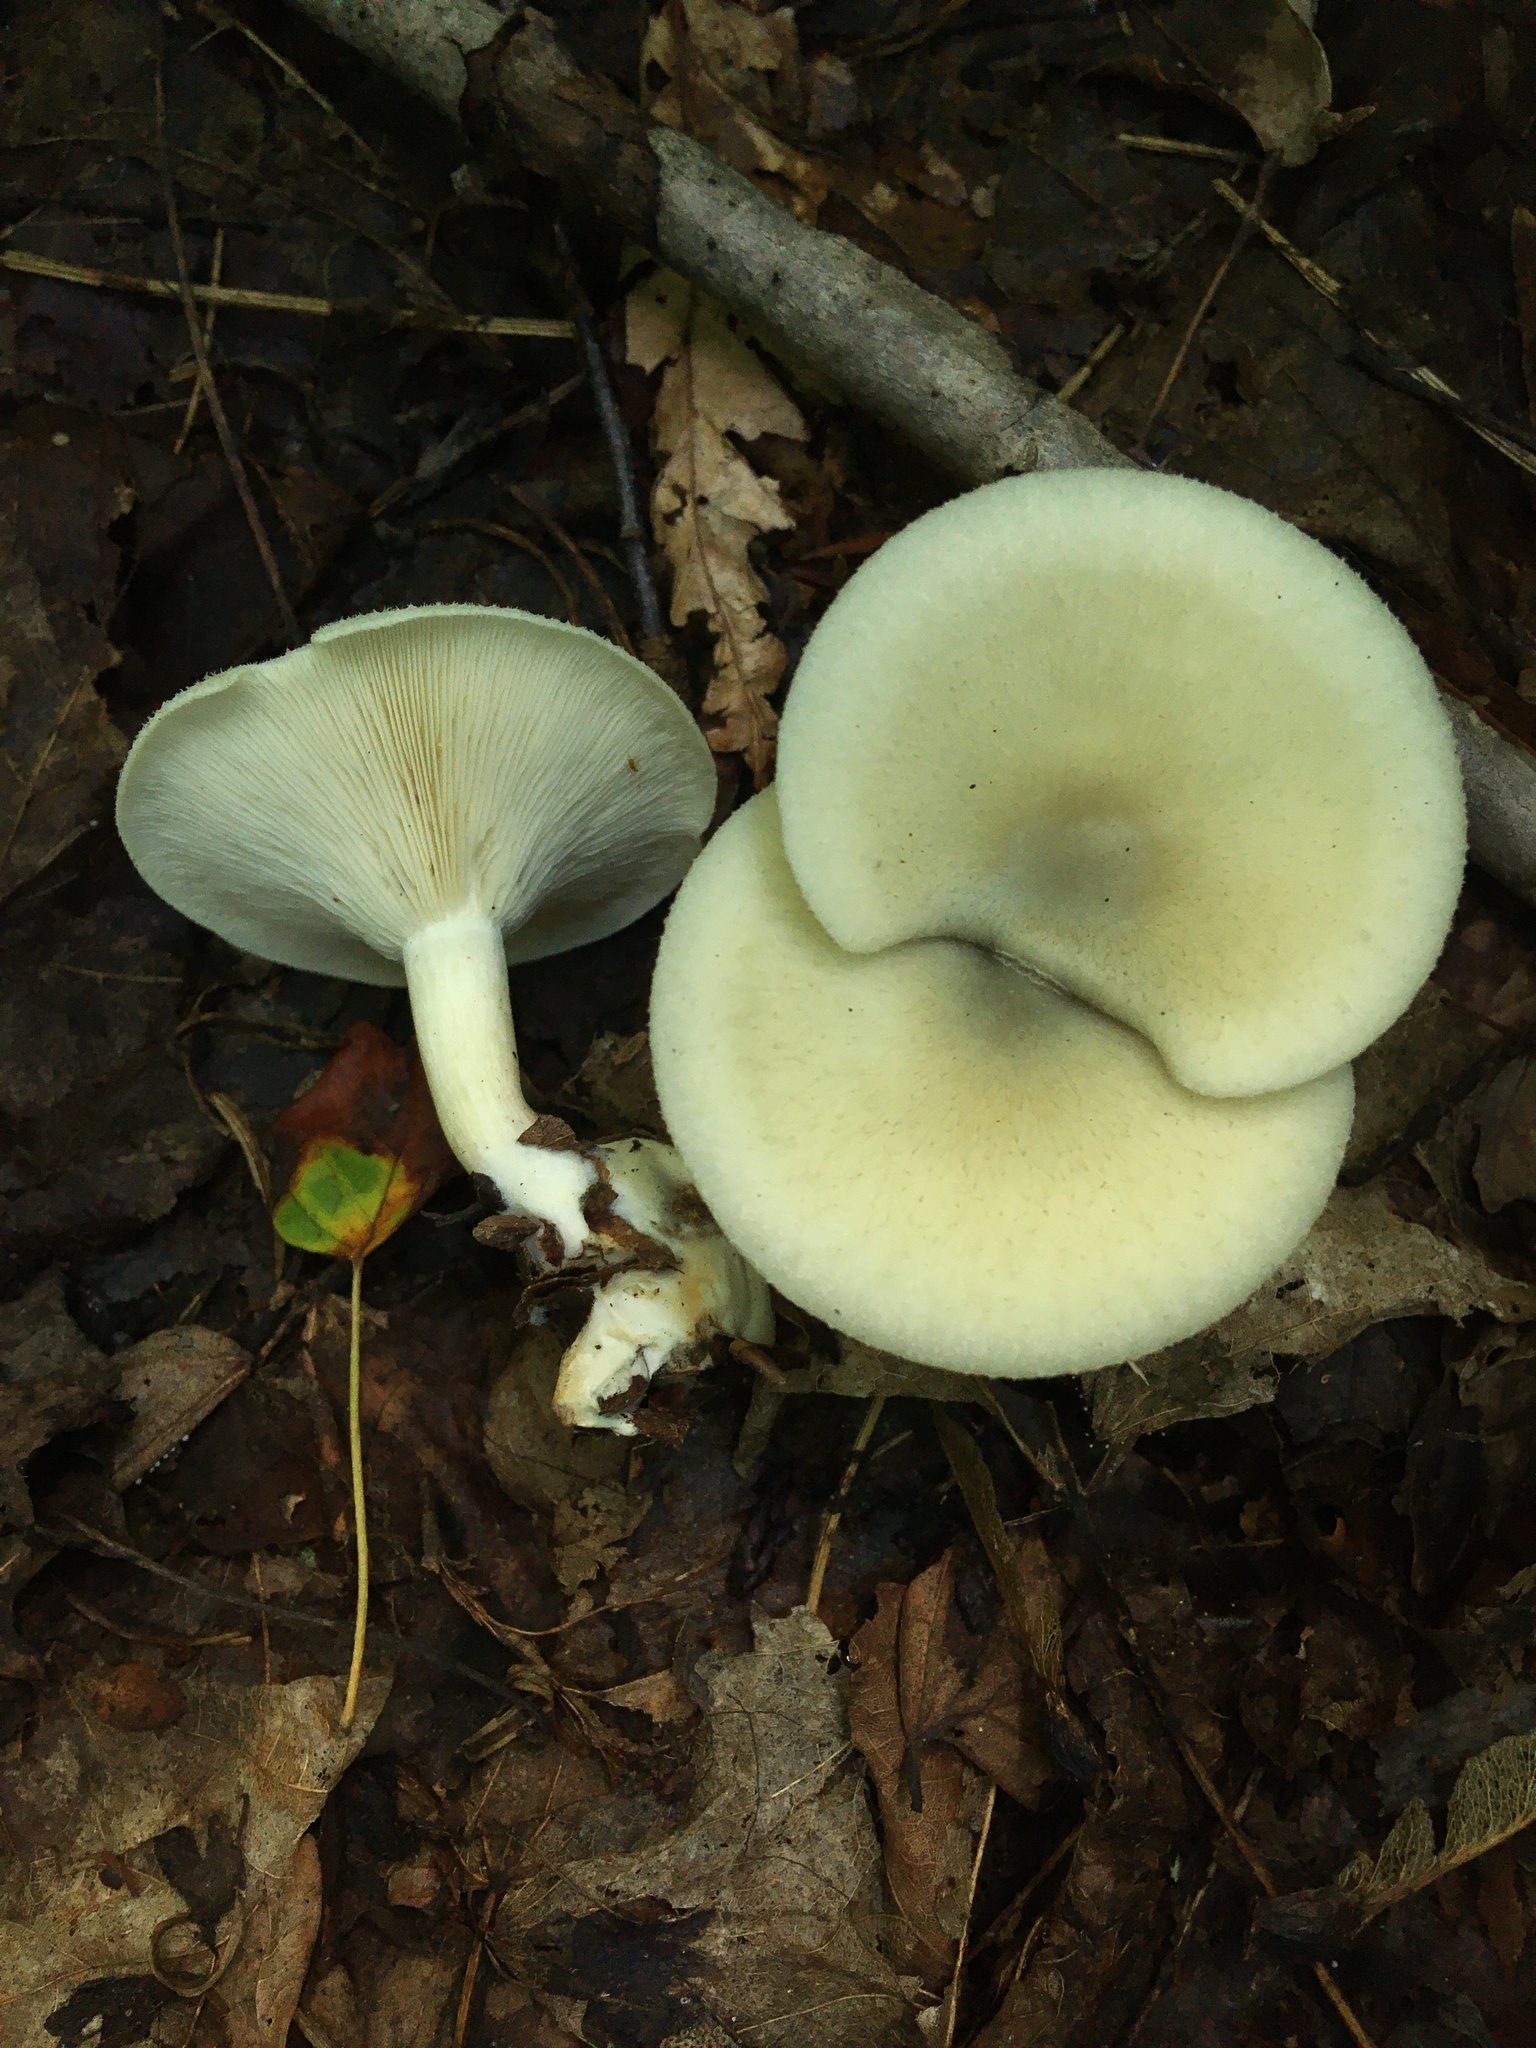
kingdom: Fungi
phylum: Basidiomycota
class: Agaricomycetes
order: Agaricales
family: Tricholomataceae
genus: Collybia
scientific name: Collybia
